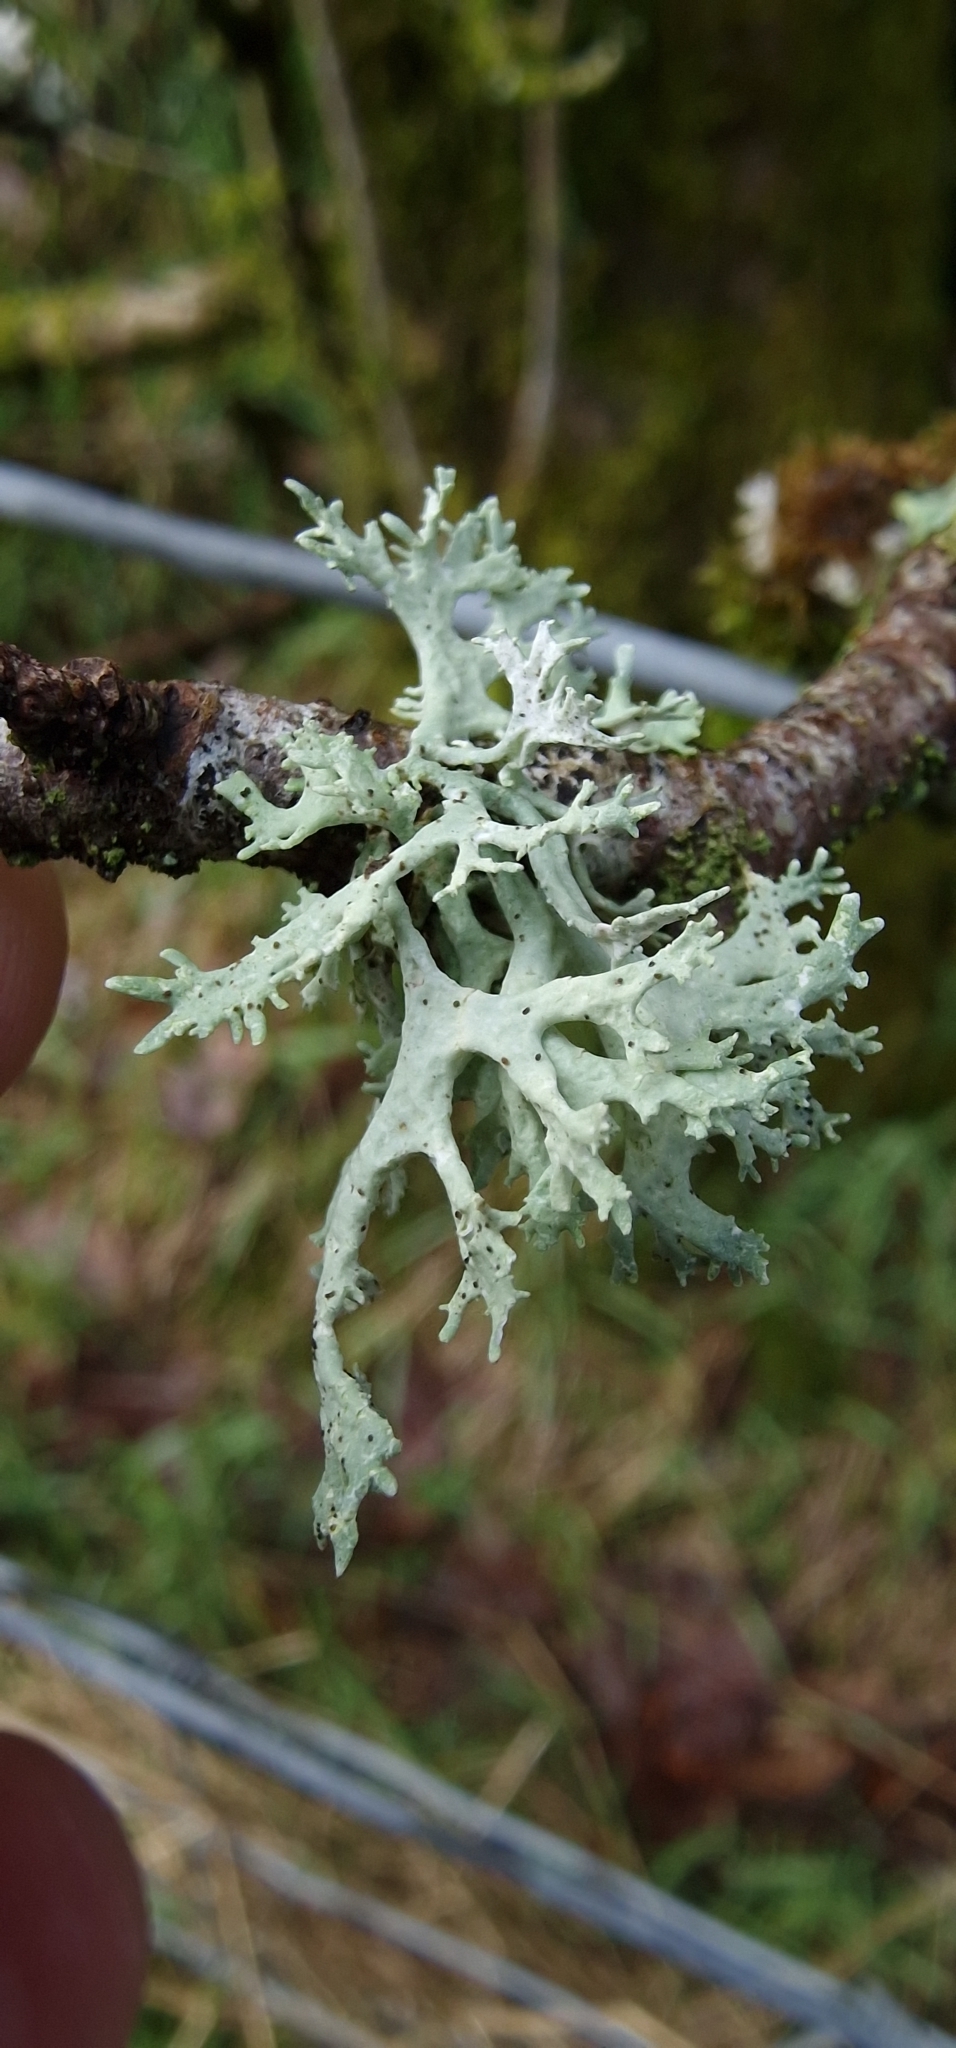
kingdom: Fungi
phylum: Ascomycota
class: Lecanoromycetes
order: Lecanorales
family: Parmeliaceae
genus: Evernia
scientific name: Evernia prunastri
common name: Oak moss
